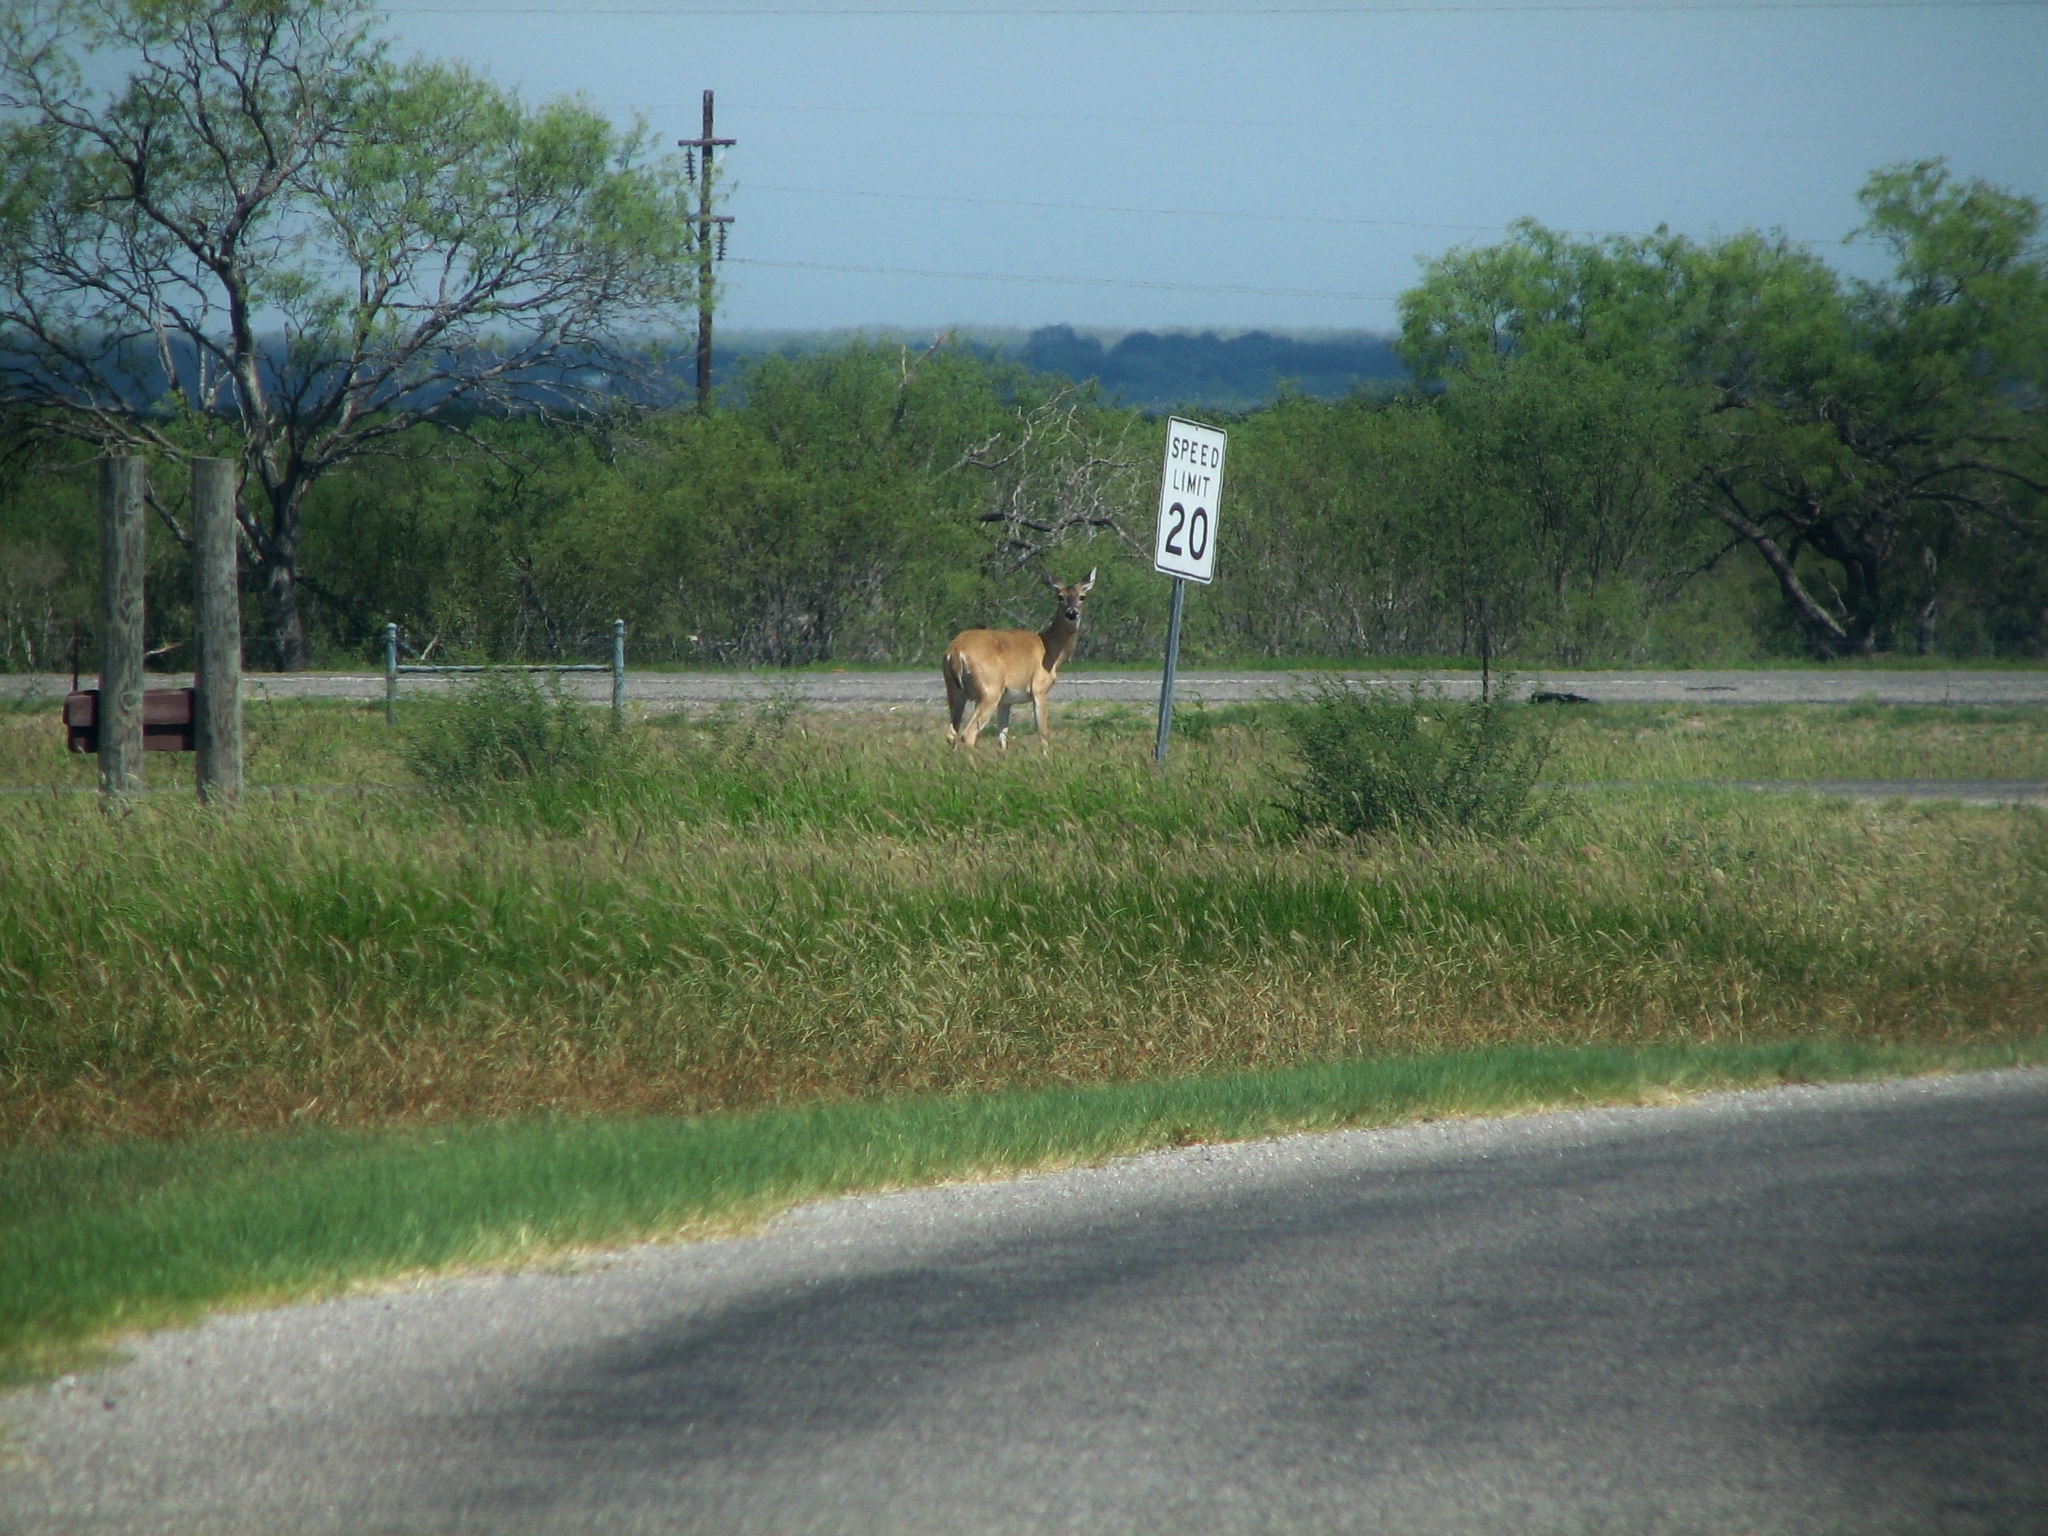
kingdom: Animalia
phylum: Chordata
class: Mammalia
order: Artiodactyla
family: Cervidae
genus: Odocoileus
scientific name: Odocoileus virginianus
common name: White-tailed deer
